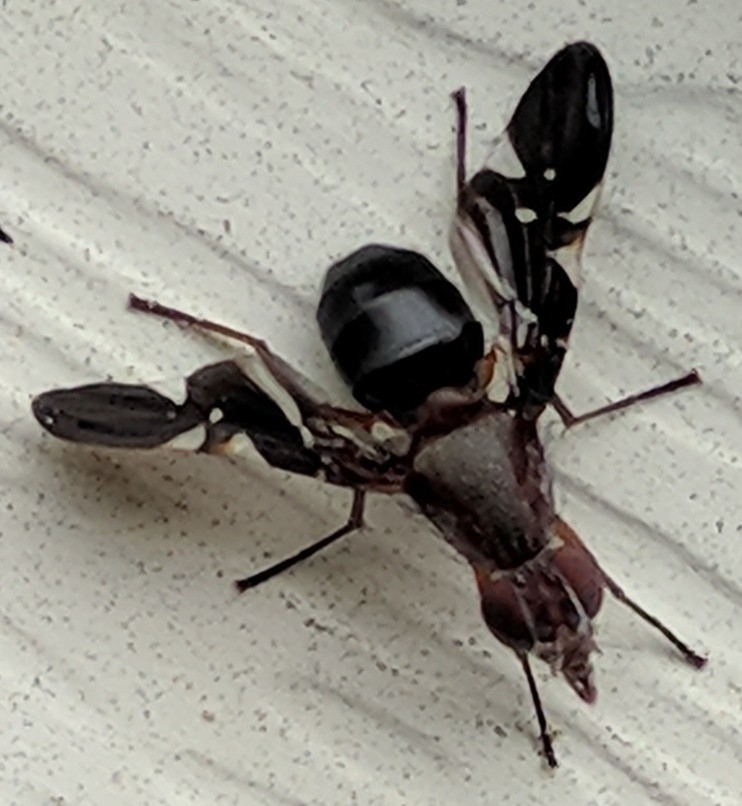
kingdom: Animalia
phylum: Arthropoda
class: Insecta
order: Diptera
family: Ulidiidae
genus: Delphinia
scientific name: Delphinia picta
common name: Common picture-winged fly
